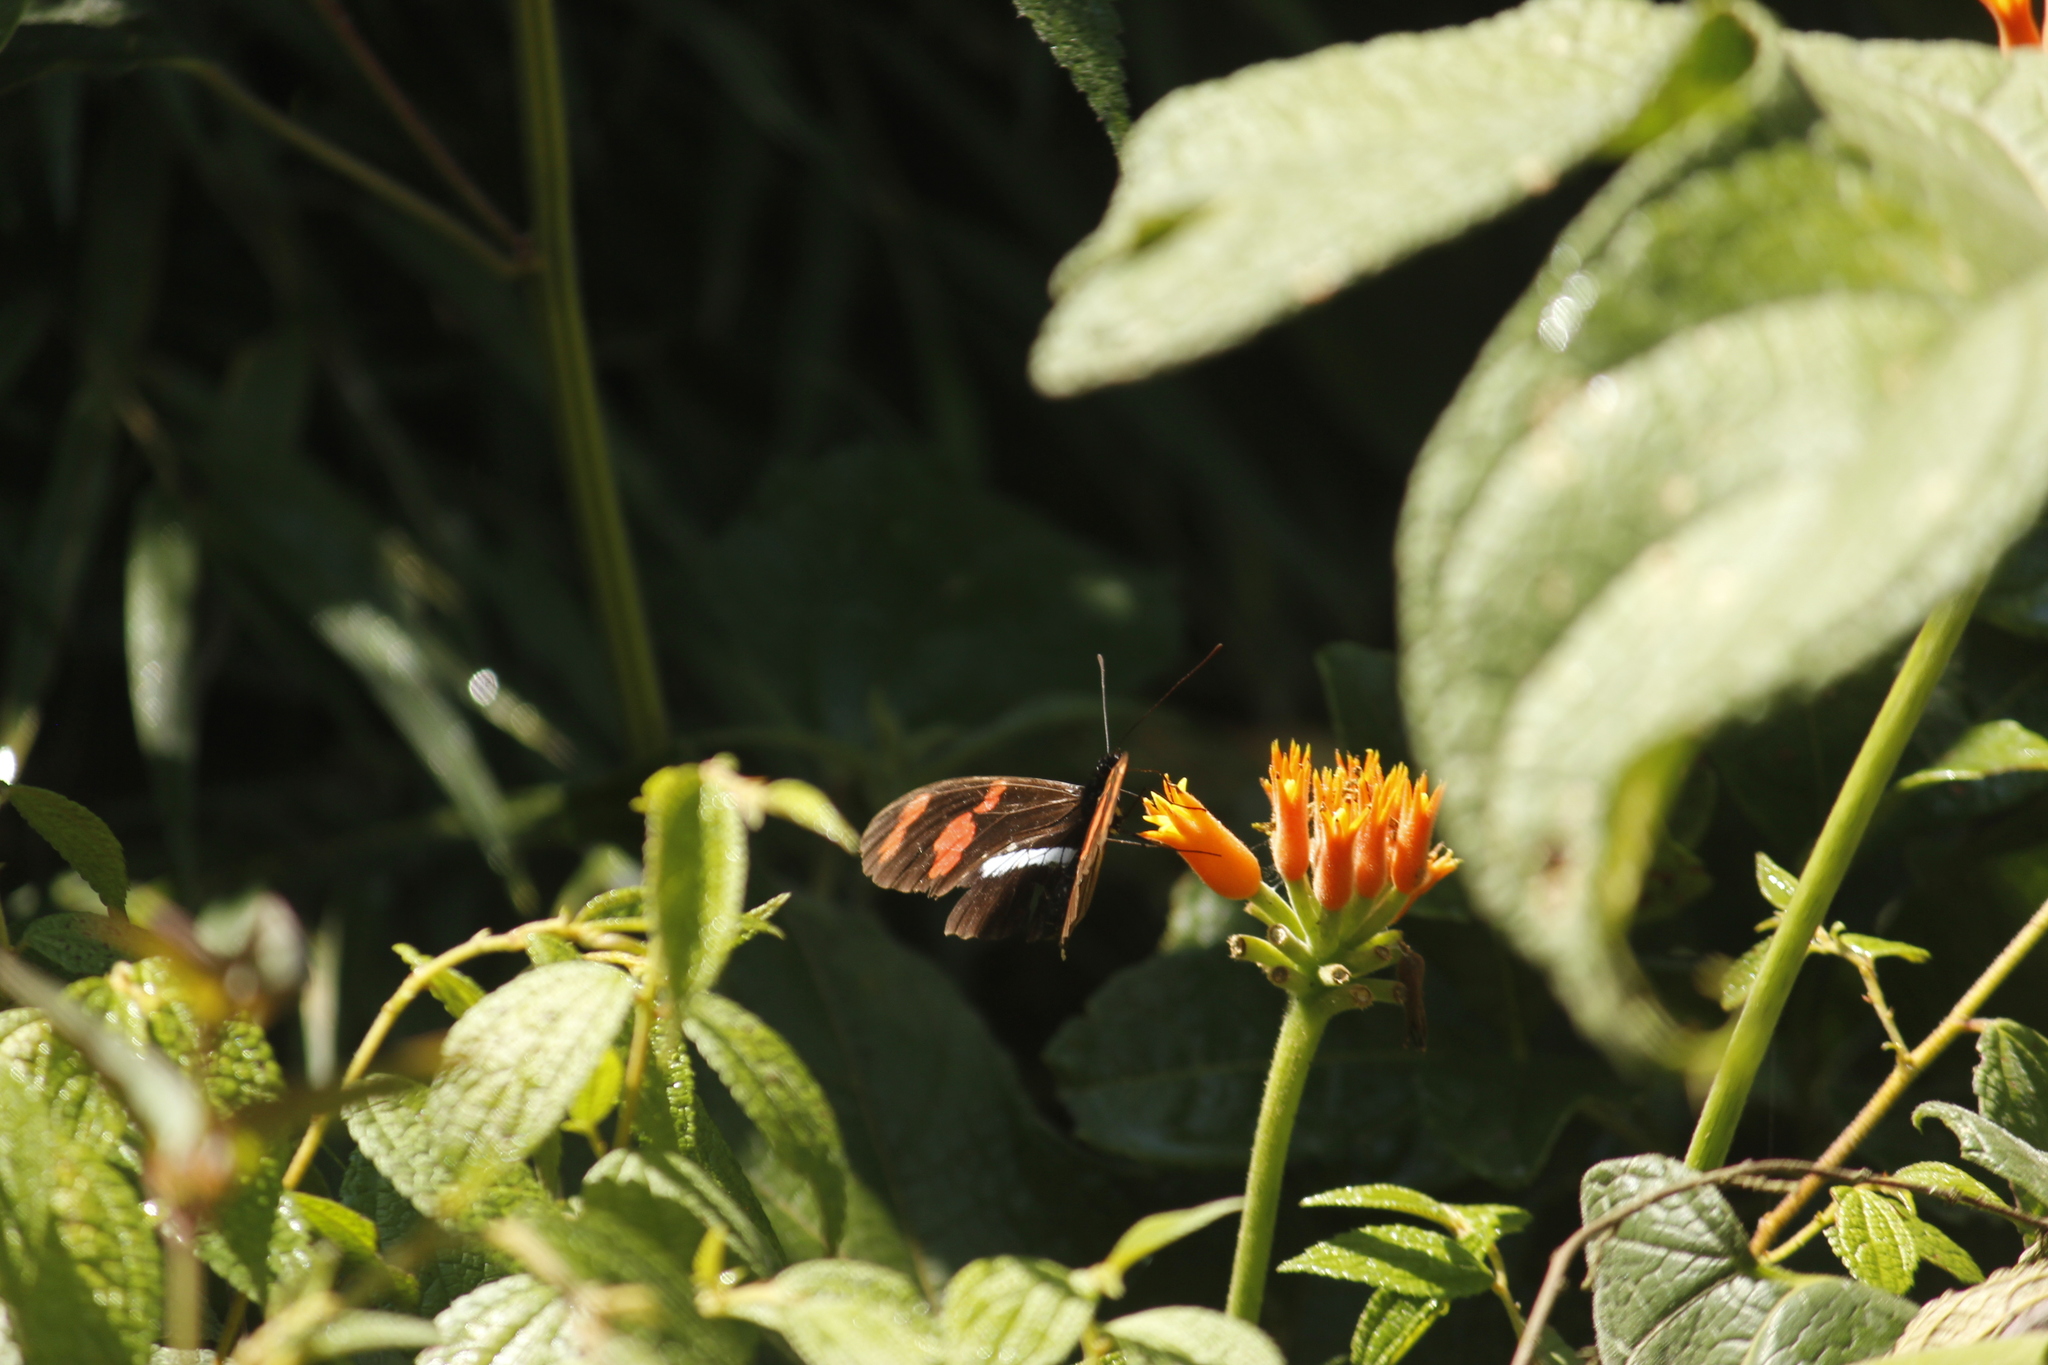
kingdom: Animalia
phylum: Arthropoda
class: Insecta
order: Lepidoptera
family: Nymphalidae
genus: Heliconius
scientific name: Heliconius telesiphe
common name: Telesiphe longwing
